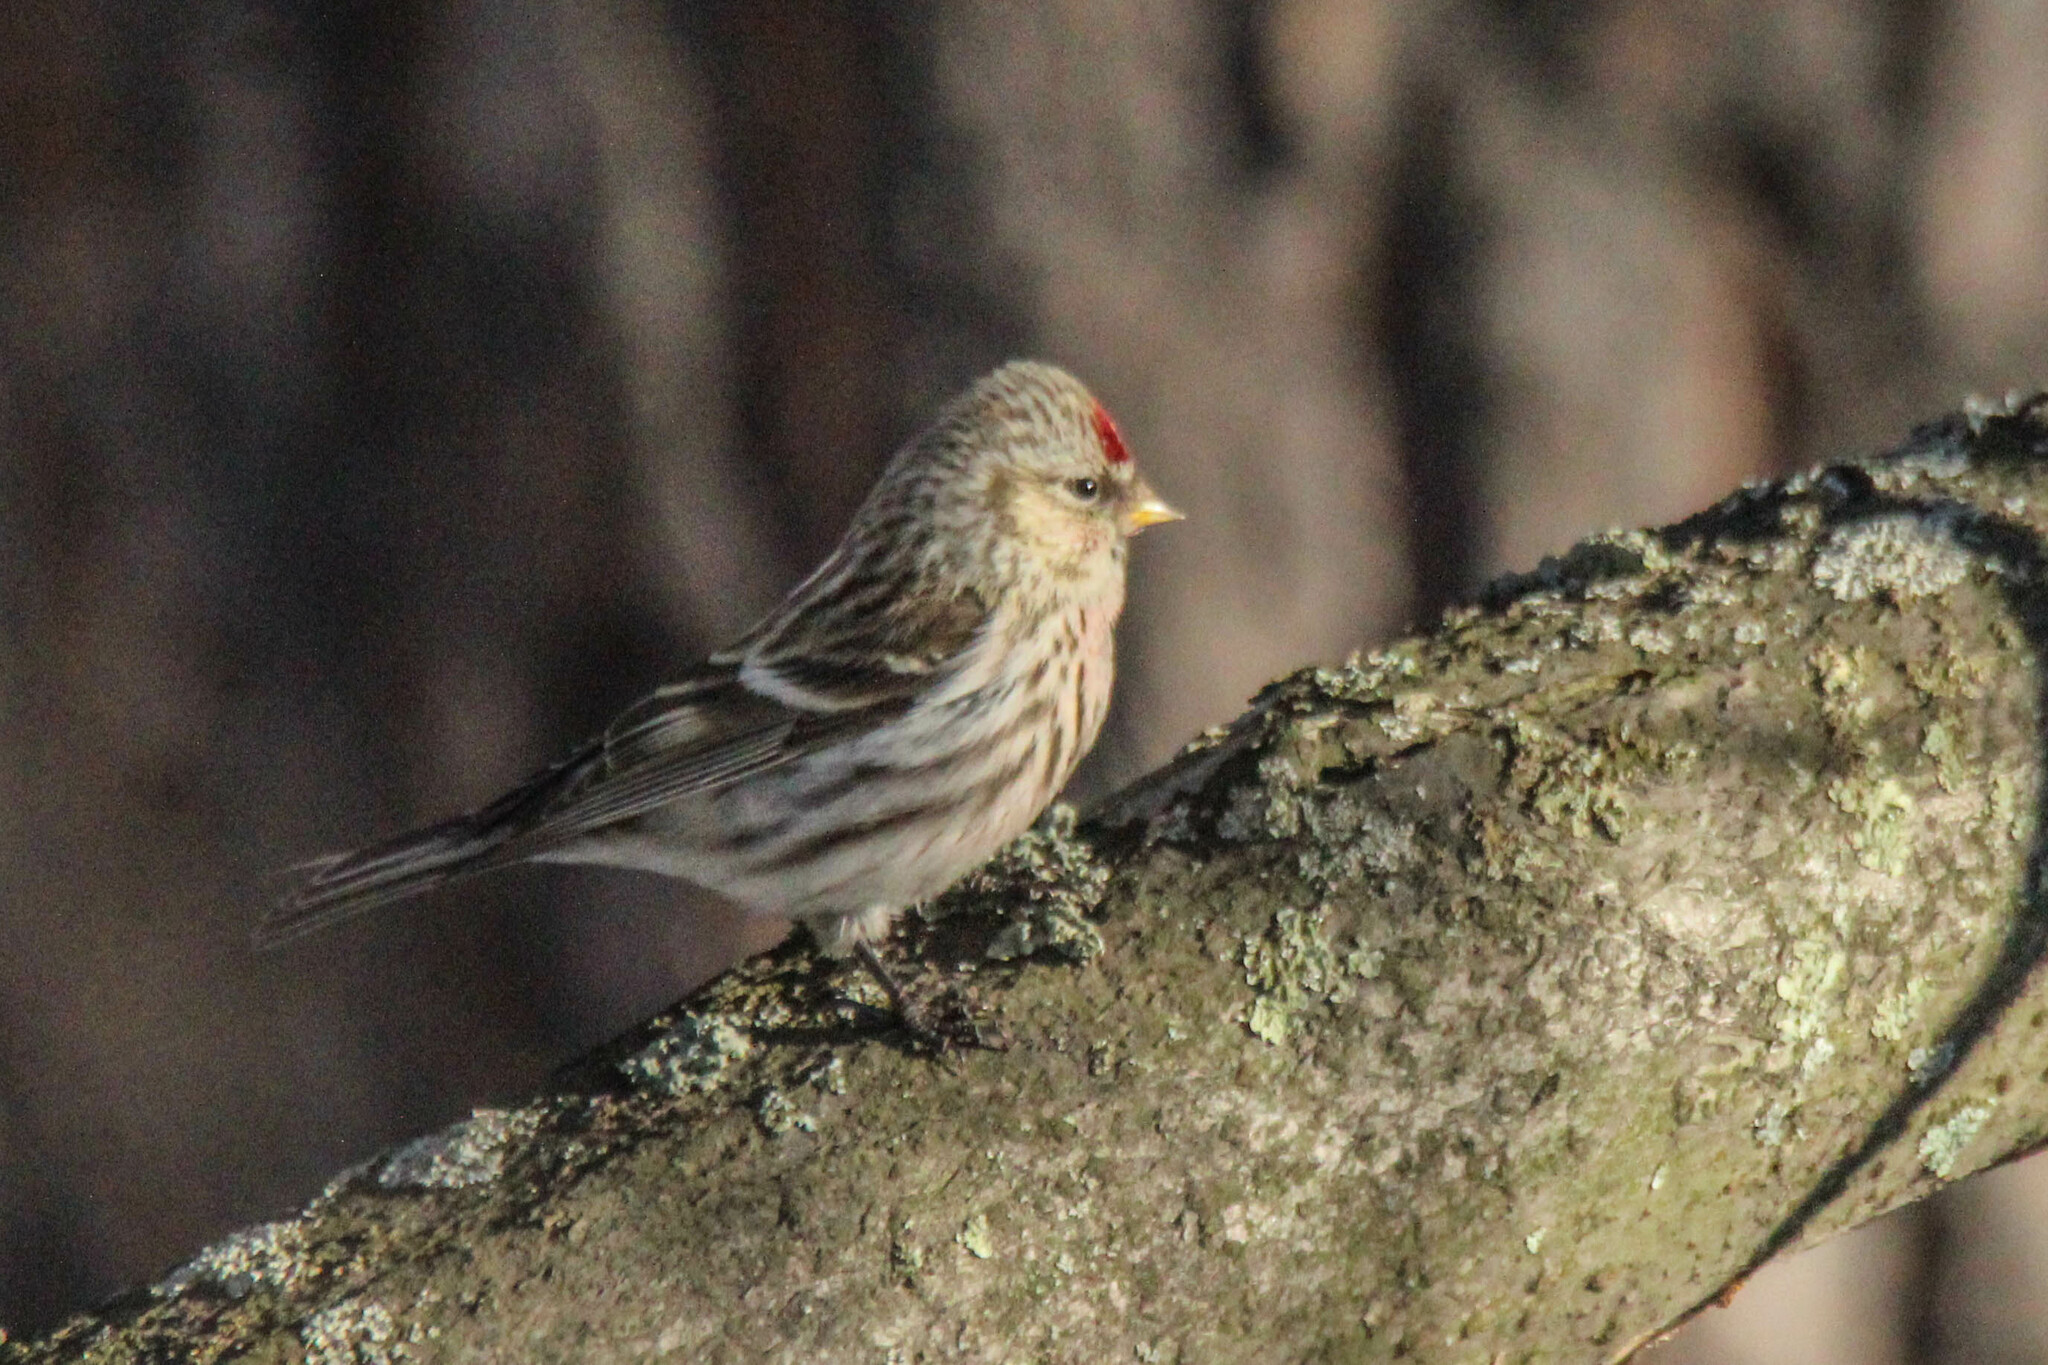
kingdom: Animalia
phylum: Chordata
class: Aves
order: Passeriformes
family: Fringillidae
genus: Acanthis
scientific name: Acanthis flammea
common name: Common redpoll
